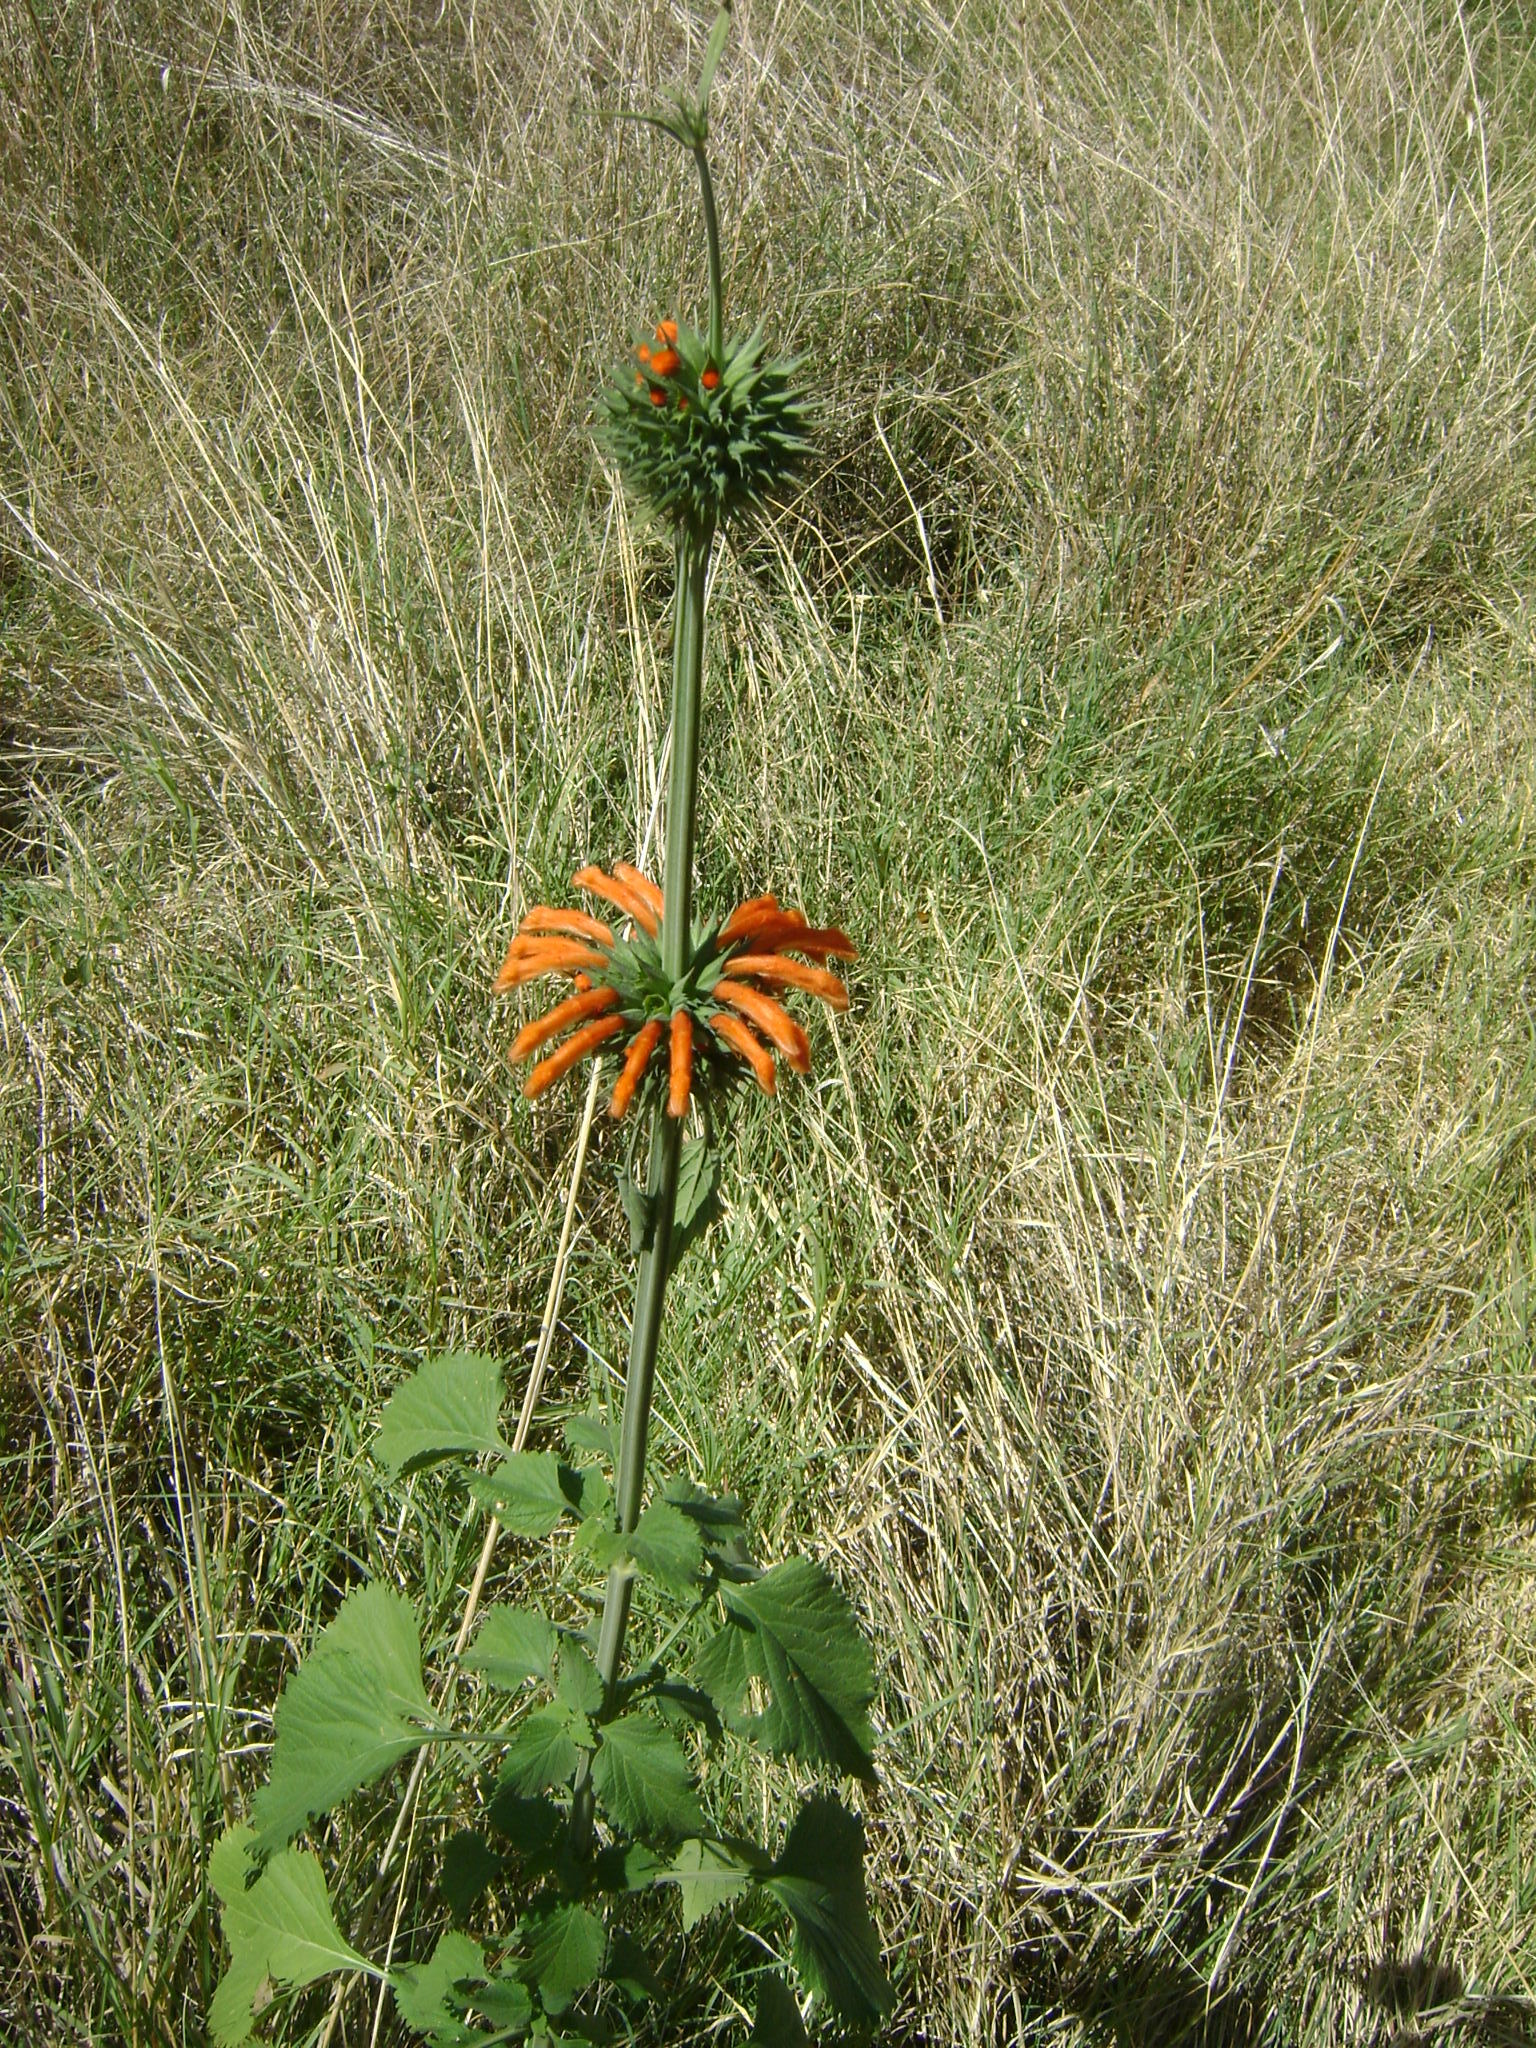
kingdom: Plantae
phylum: Tracheophyta
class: Magnoliopsida
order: Lamiales
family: Lamiaceae
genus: Leonotis
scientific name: Leonotis nepetifolia
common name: Christmas candlestick
